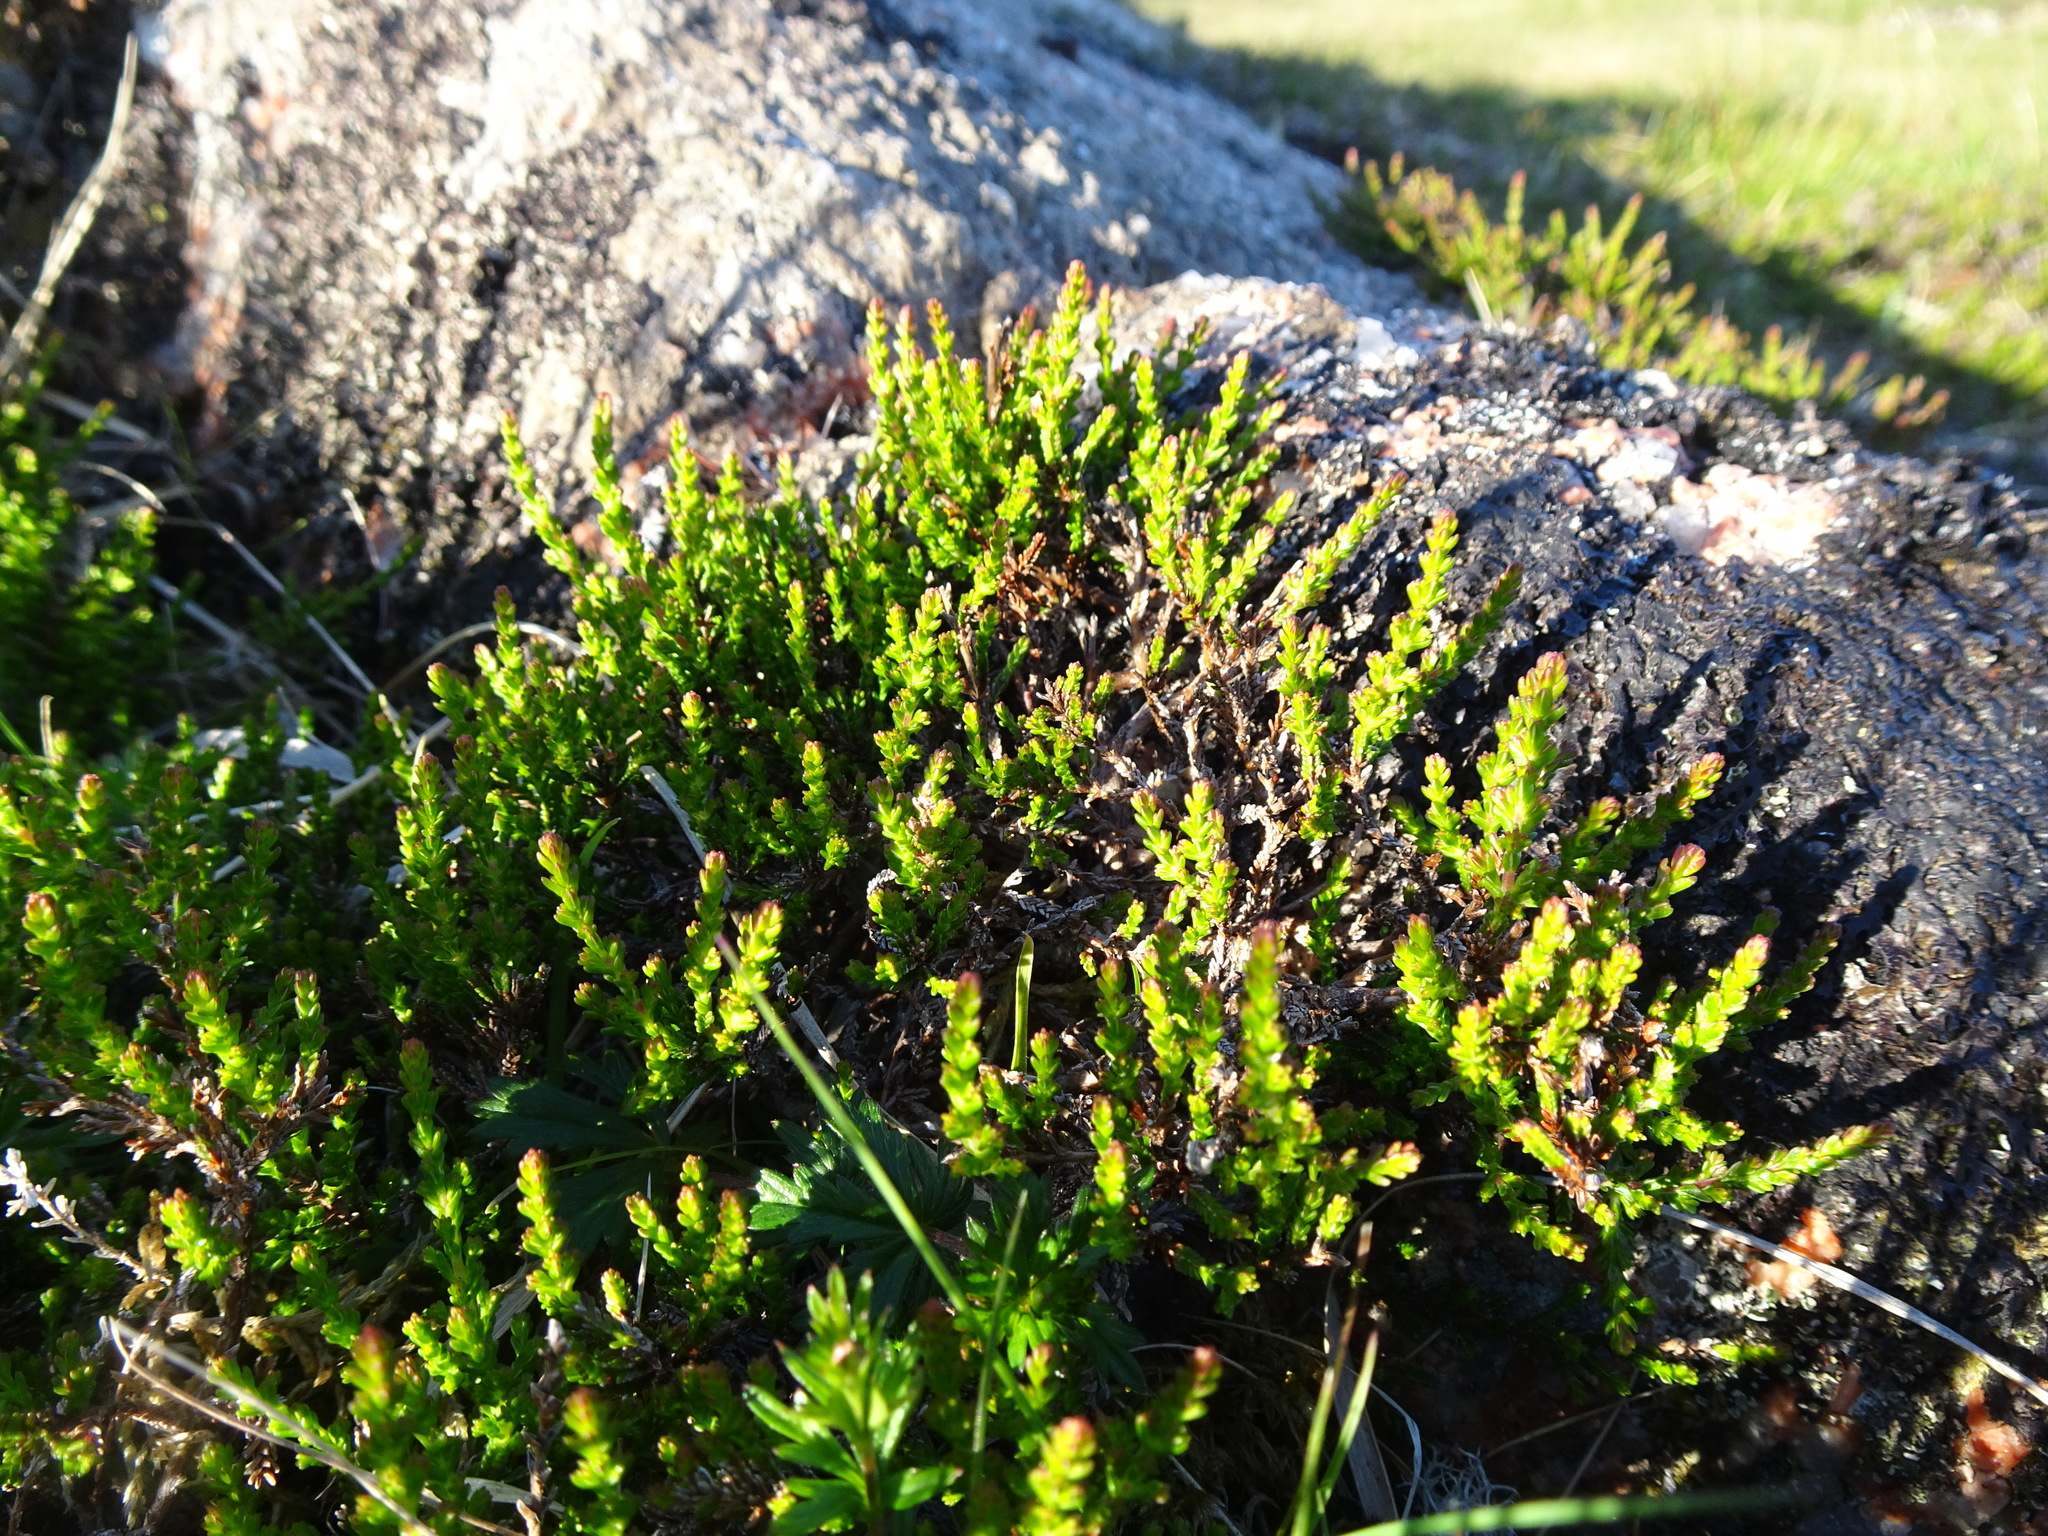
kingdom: Plantae
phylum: Tracheophyta
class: Magnoliopsida
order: Ericales
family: Ericaceae
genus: Calluna
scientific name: Calluna vulgaris
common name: Heather
